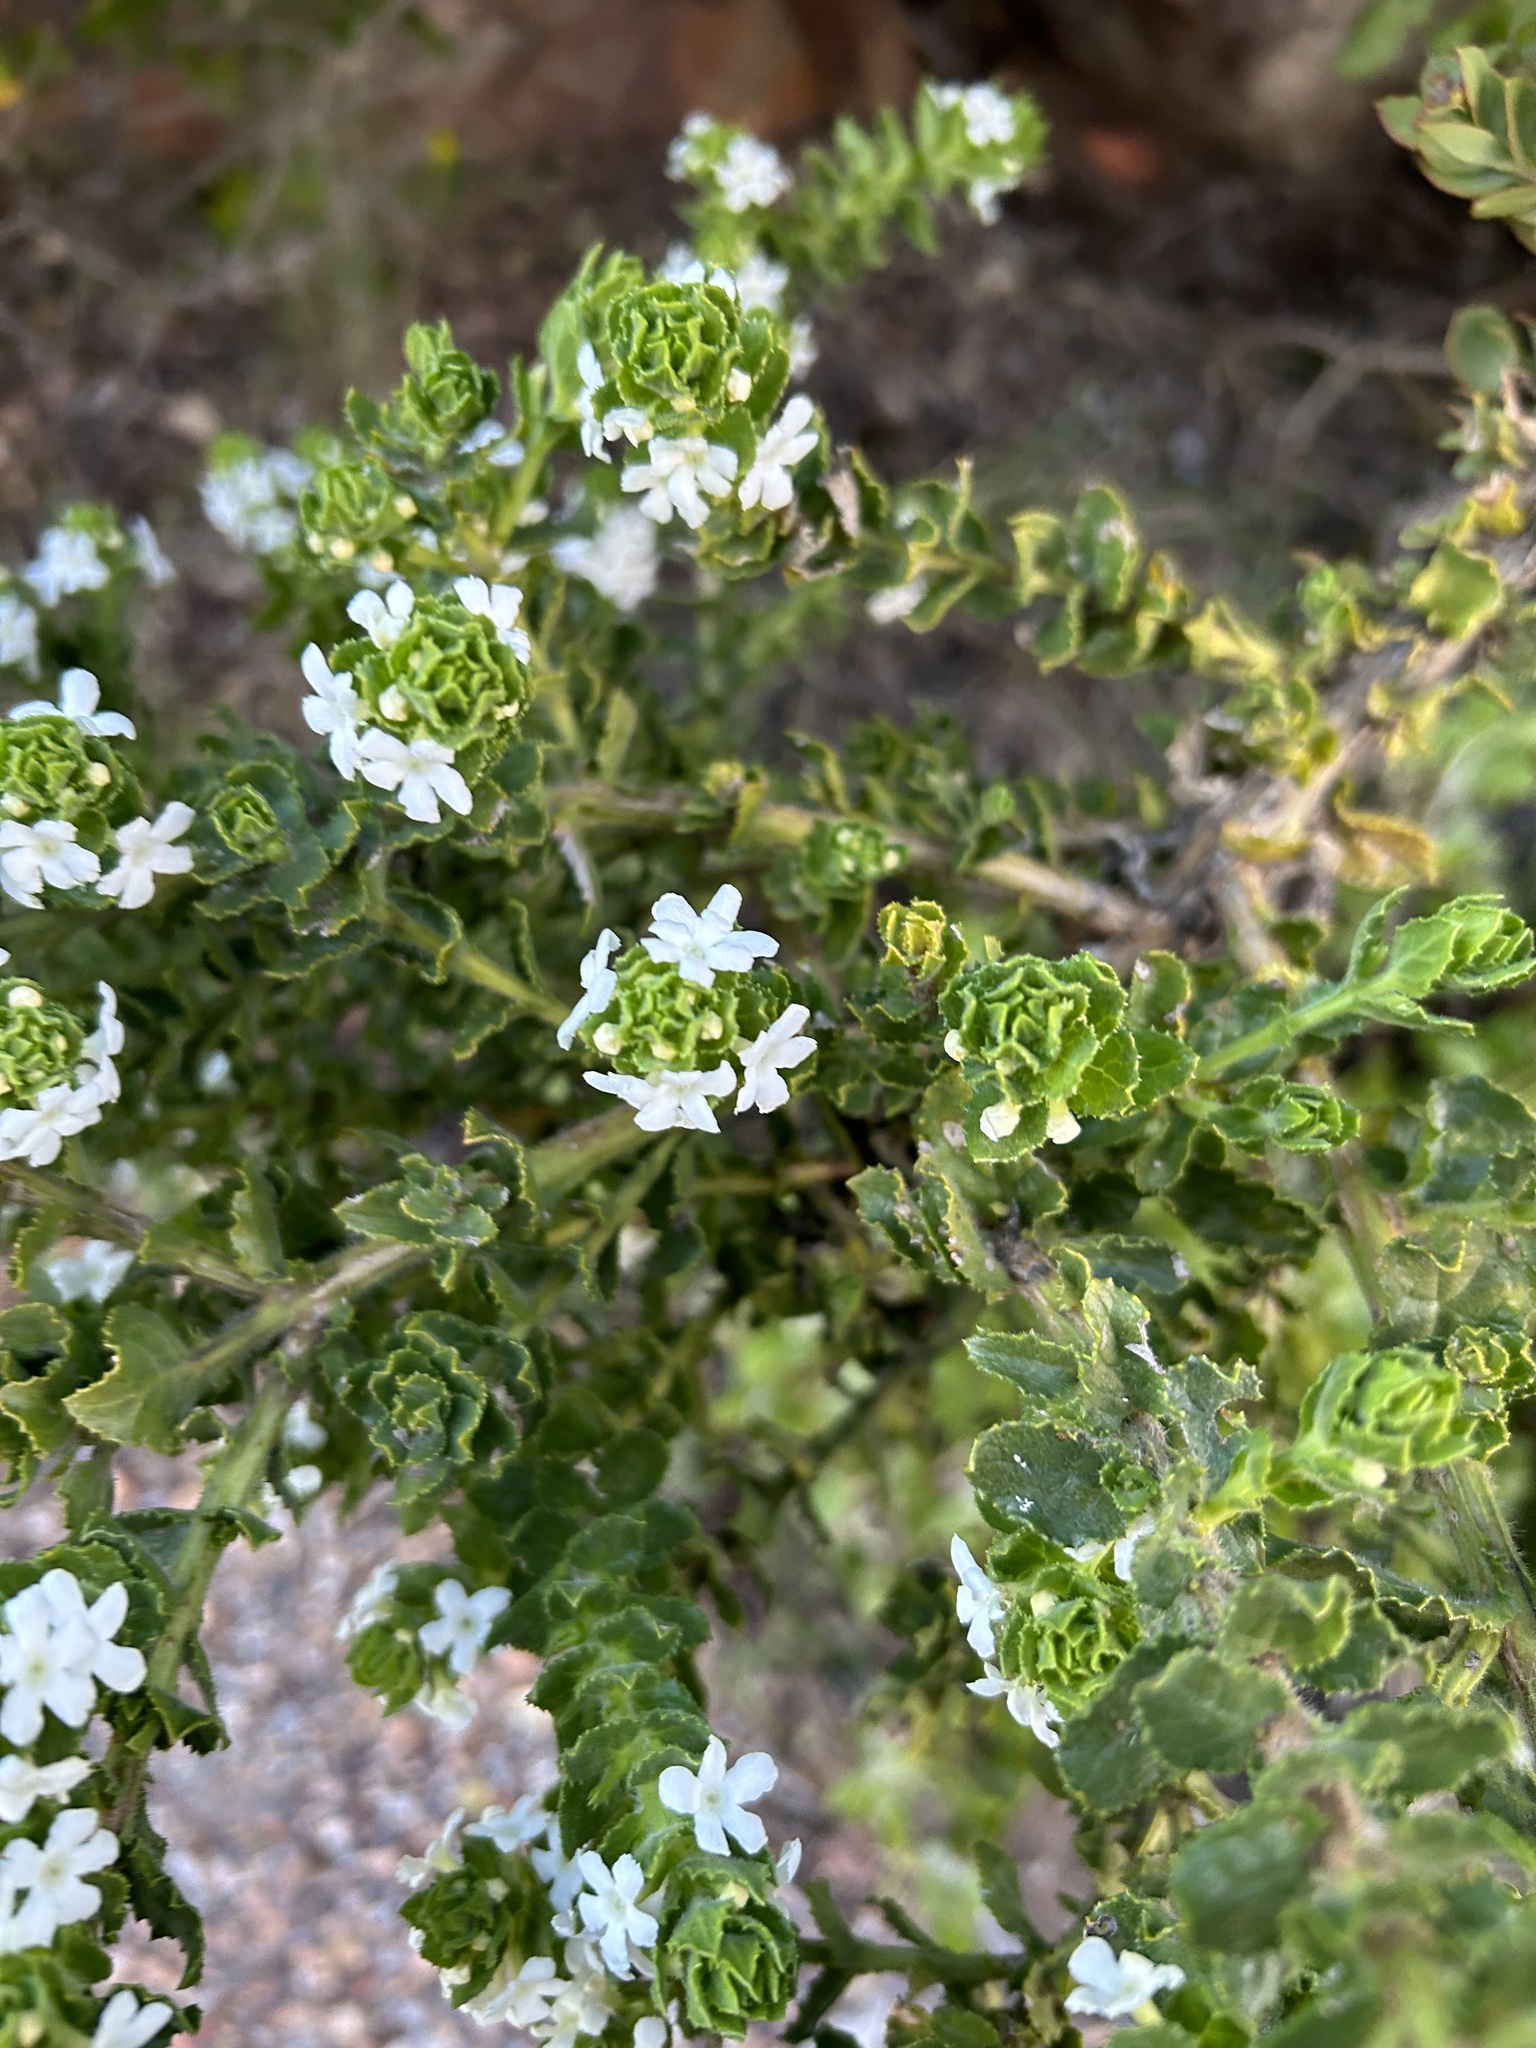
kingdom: Plantae
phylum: Tracheophyta
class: Magnoliopsida
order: Lamiales
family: Scrophulariaceae
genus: Oftia
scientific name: Oftia africana
